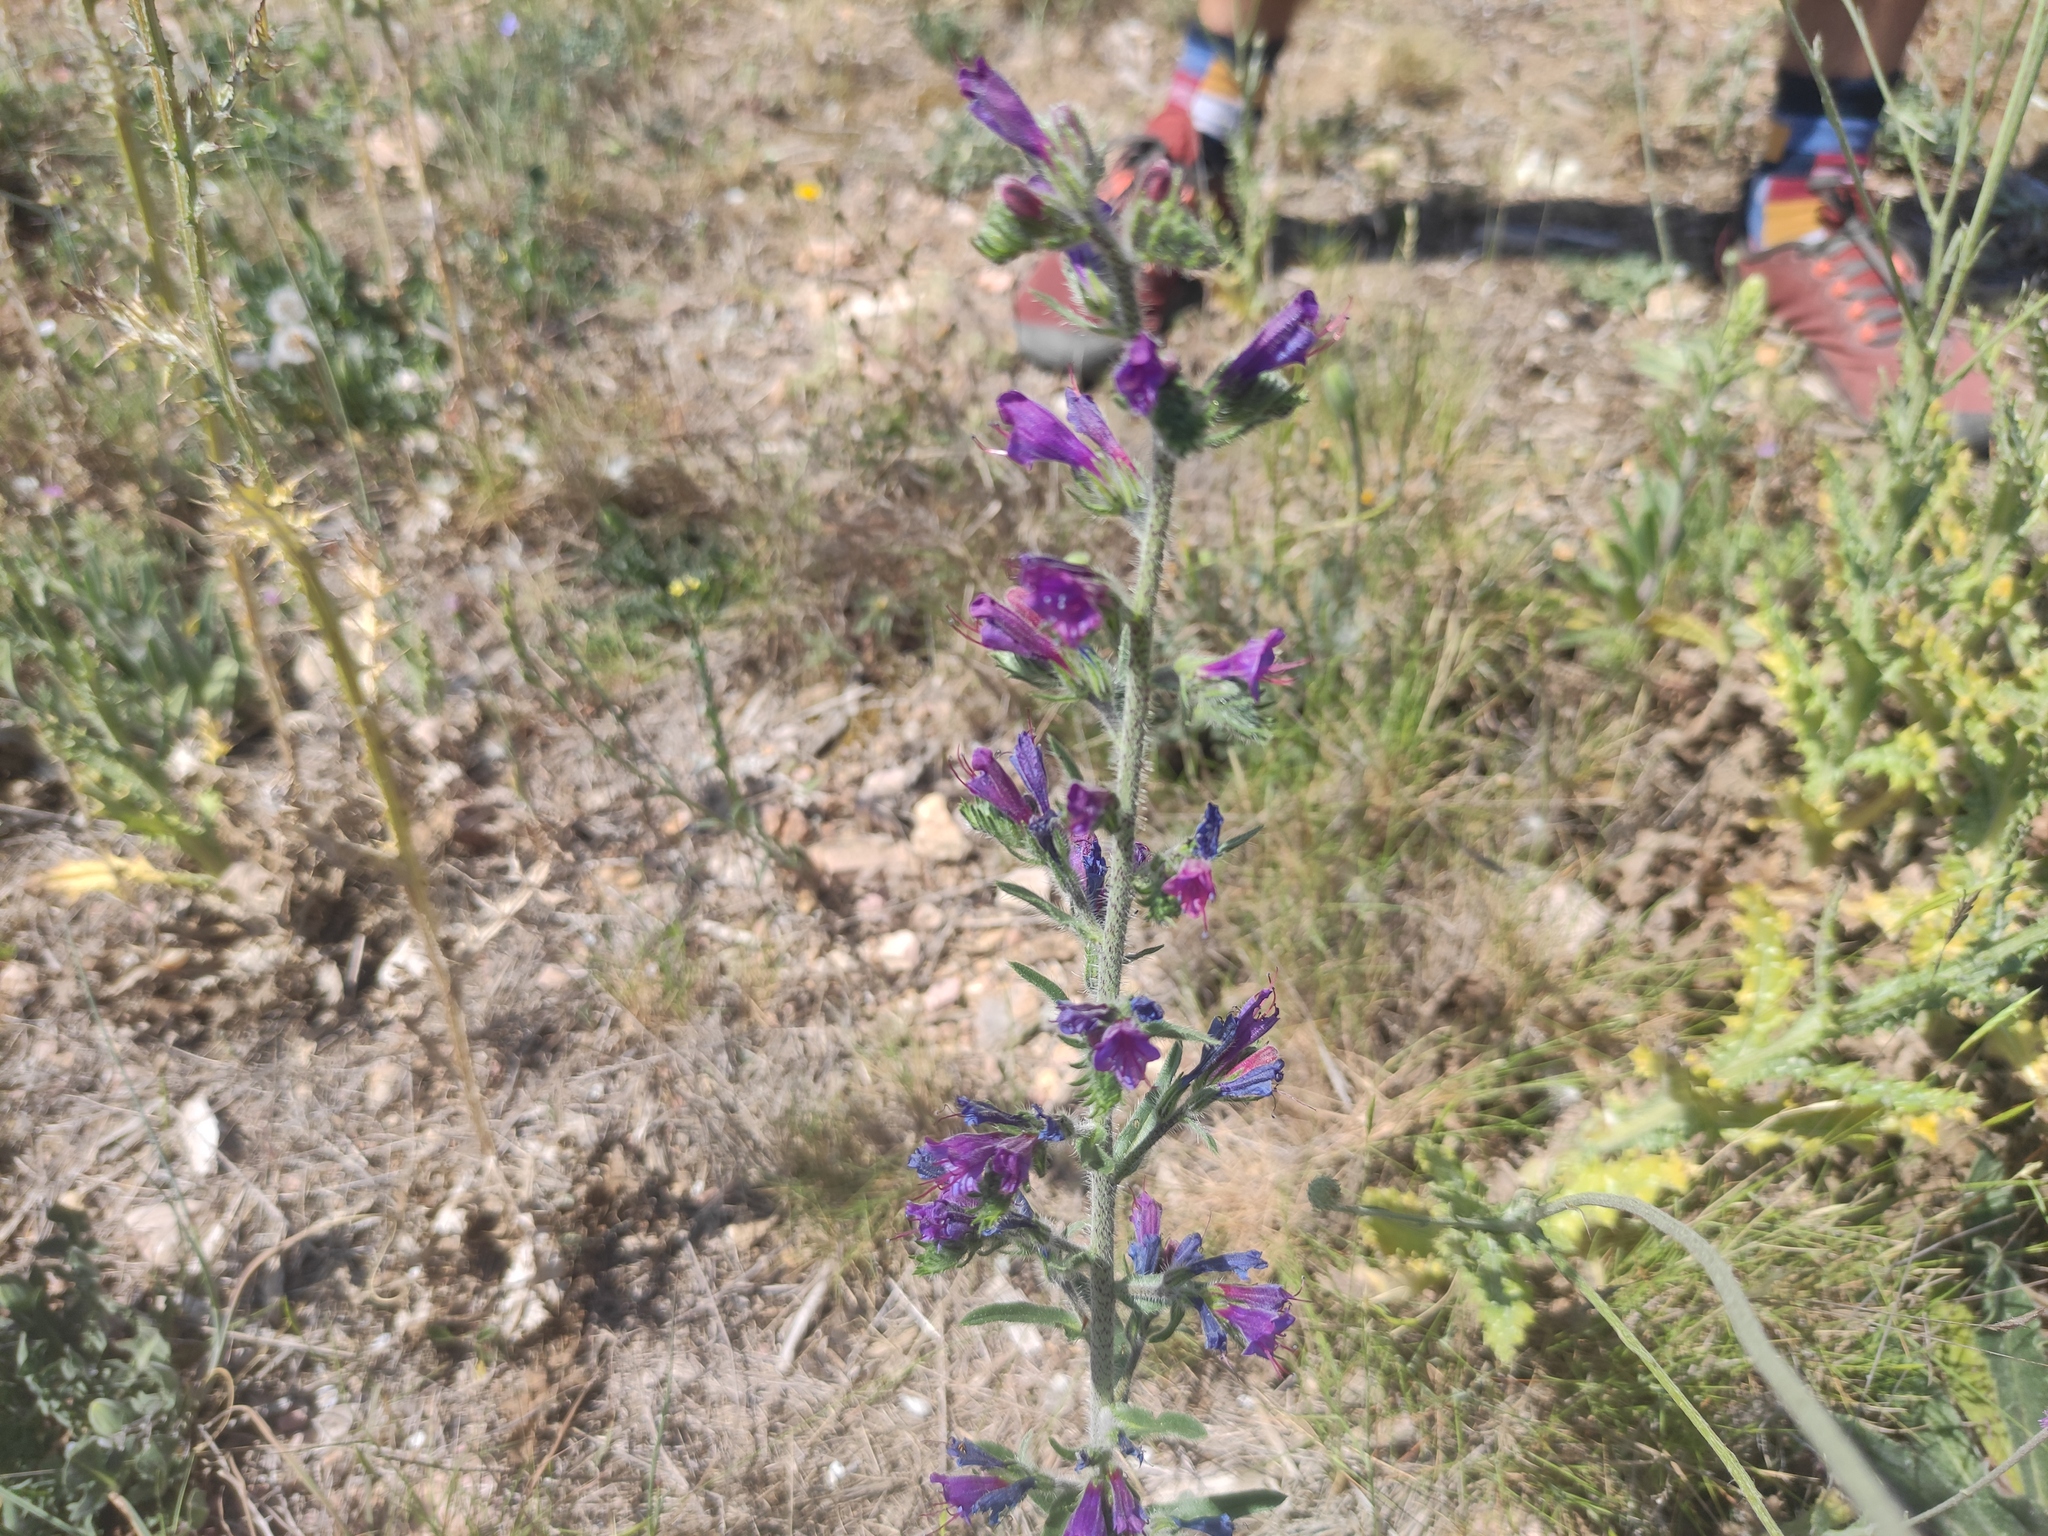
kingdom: Plantae
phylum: Tracheophyta
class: Magnoliopsida
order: Boraginales
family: Boraginaceae
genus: Echium
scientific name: Echium vulgare
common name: Common viper's bugloss
